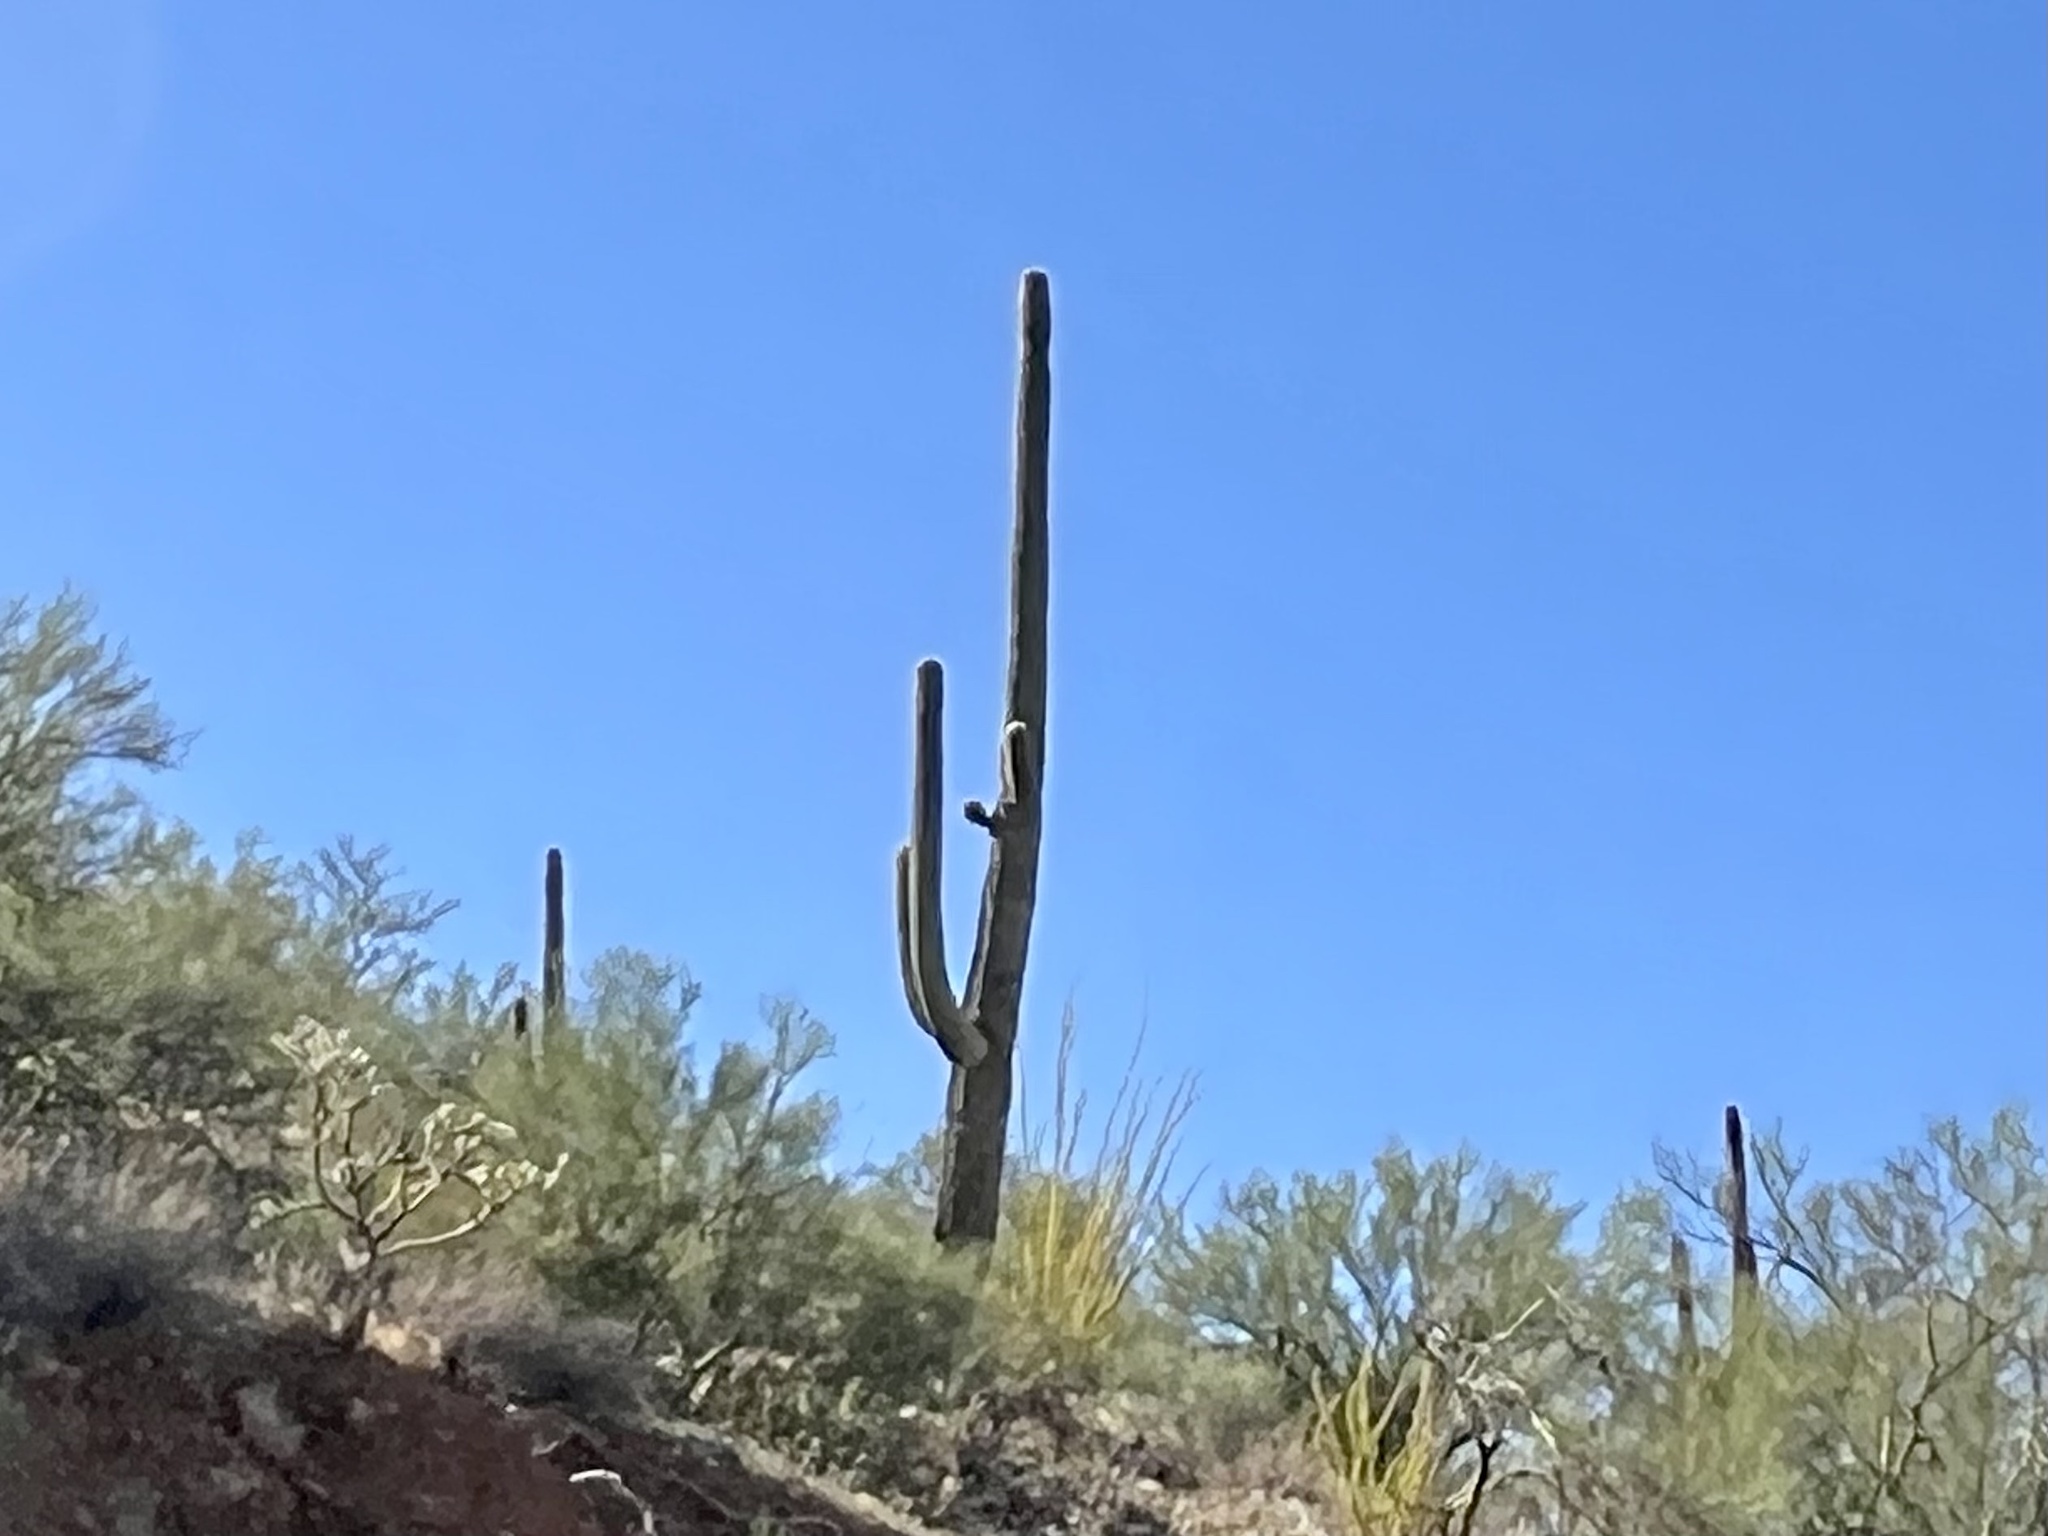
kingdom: Plantae
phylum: Tracheophyta
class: Magnoliopsida
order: Caryophyllales
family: Cactaceae
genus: Carnegiea
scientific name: Carnegiea gigantea
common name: Saguaro
